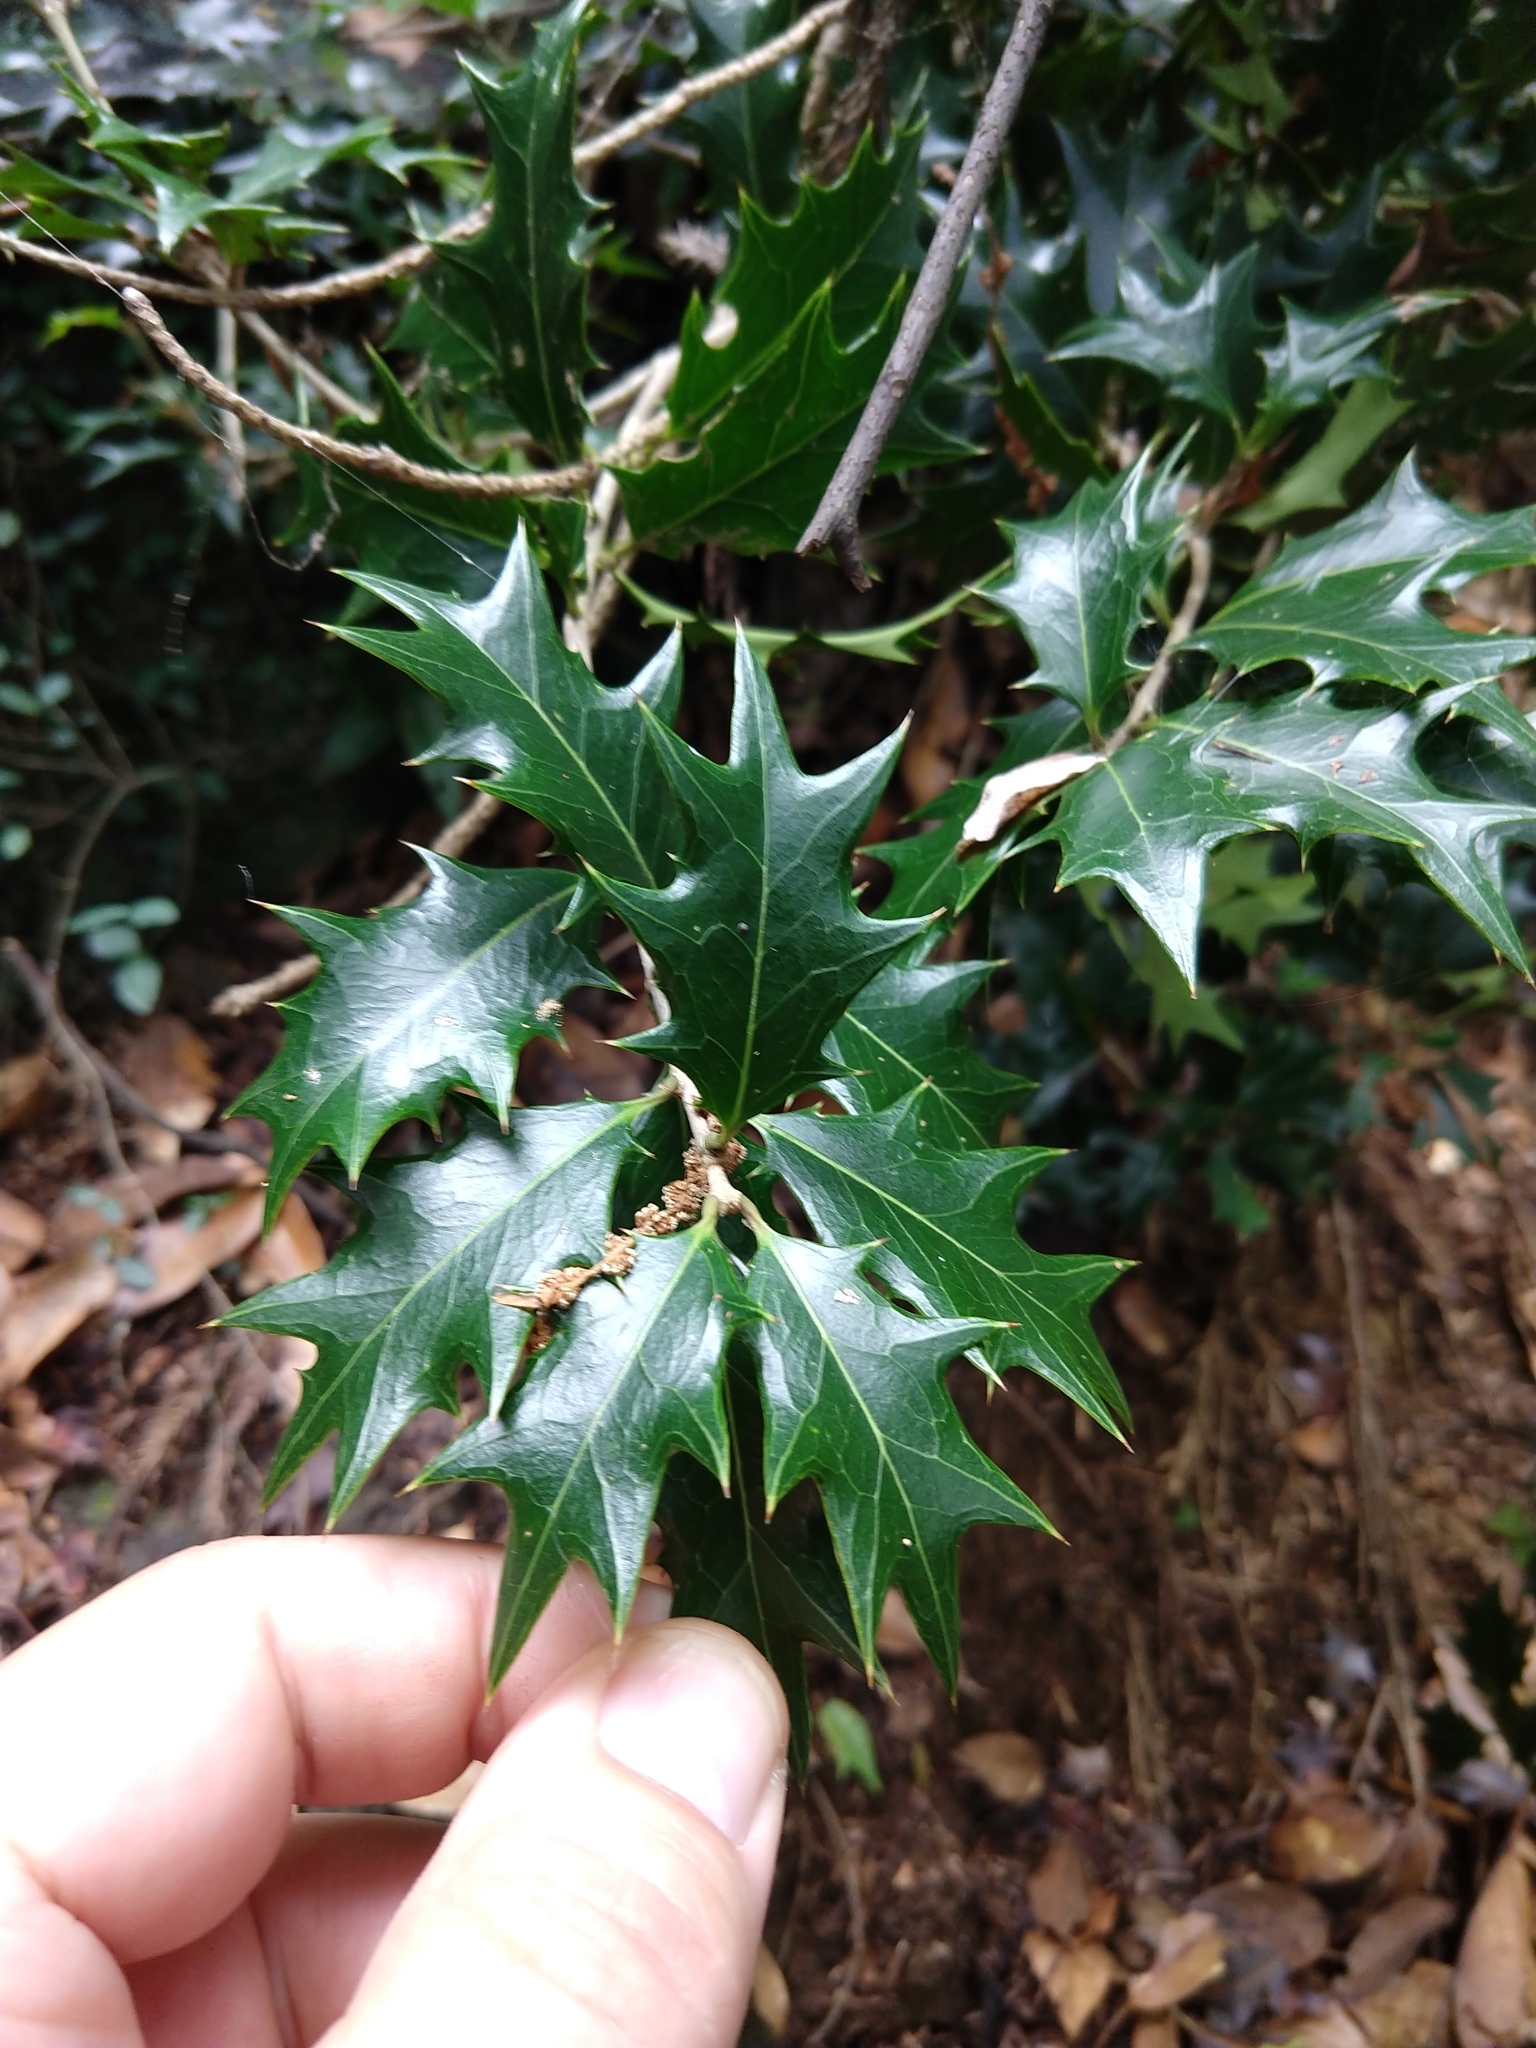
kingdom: Plantae
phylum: Tracheophyta
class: Magnoliopsida
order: Lamiales
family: Oleaceae
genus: Osmanthus
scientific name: Osmanthus heterophyllus
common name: Holly osmanthus
